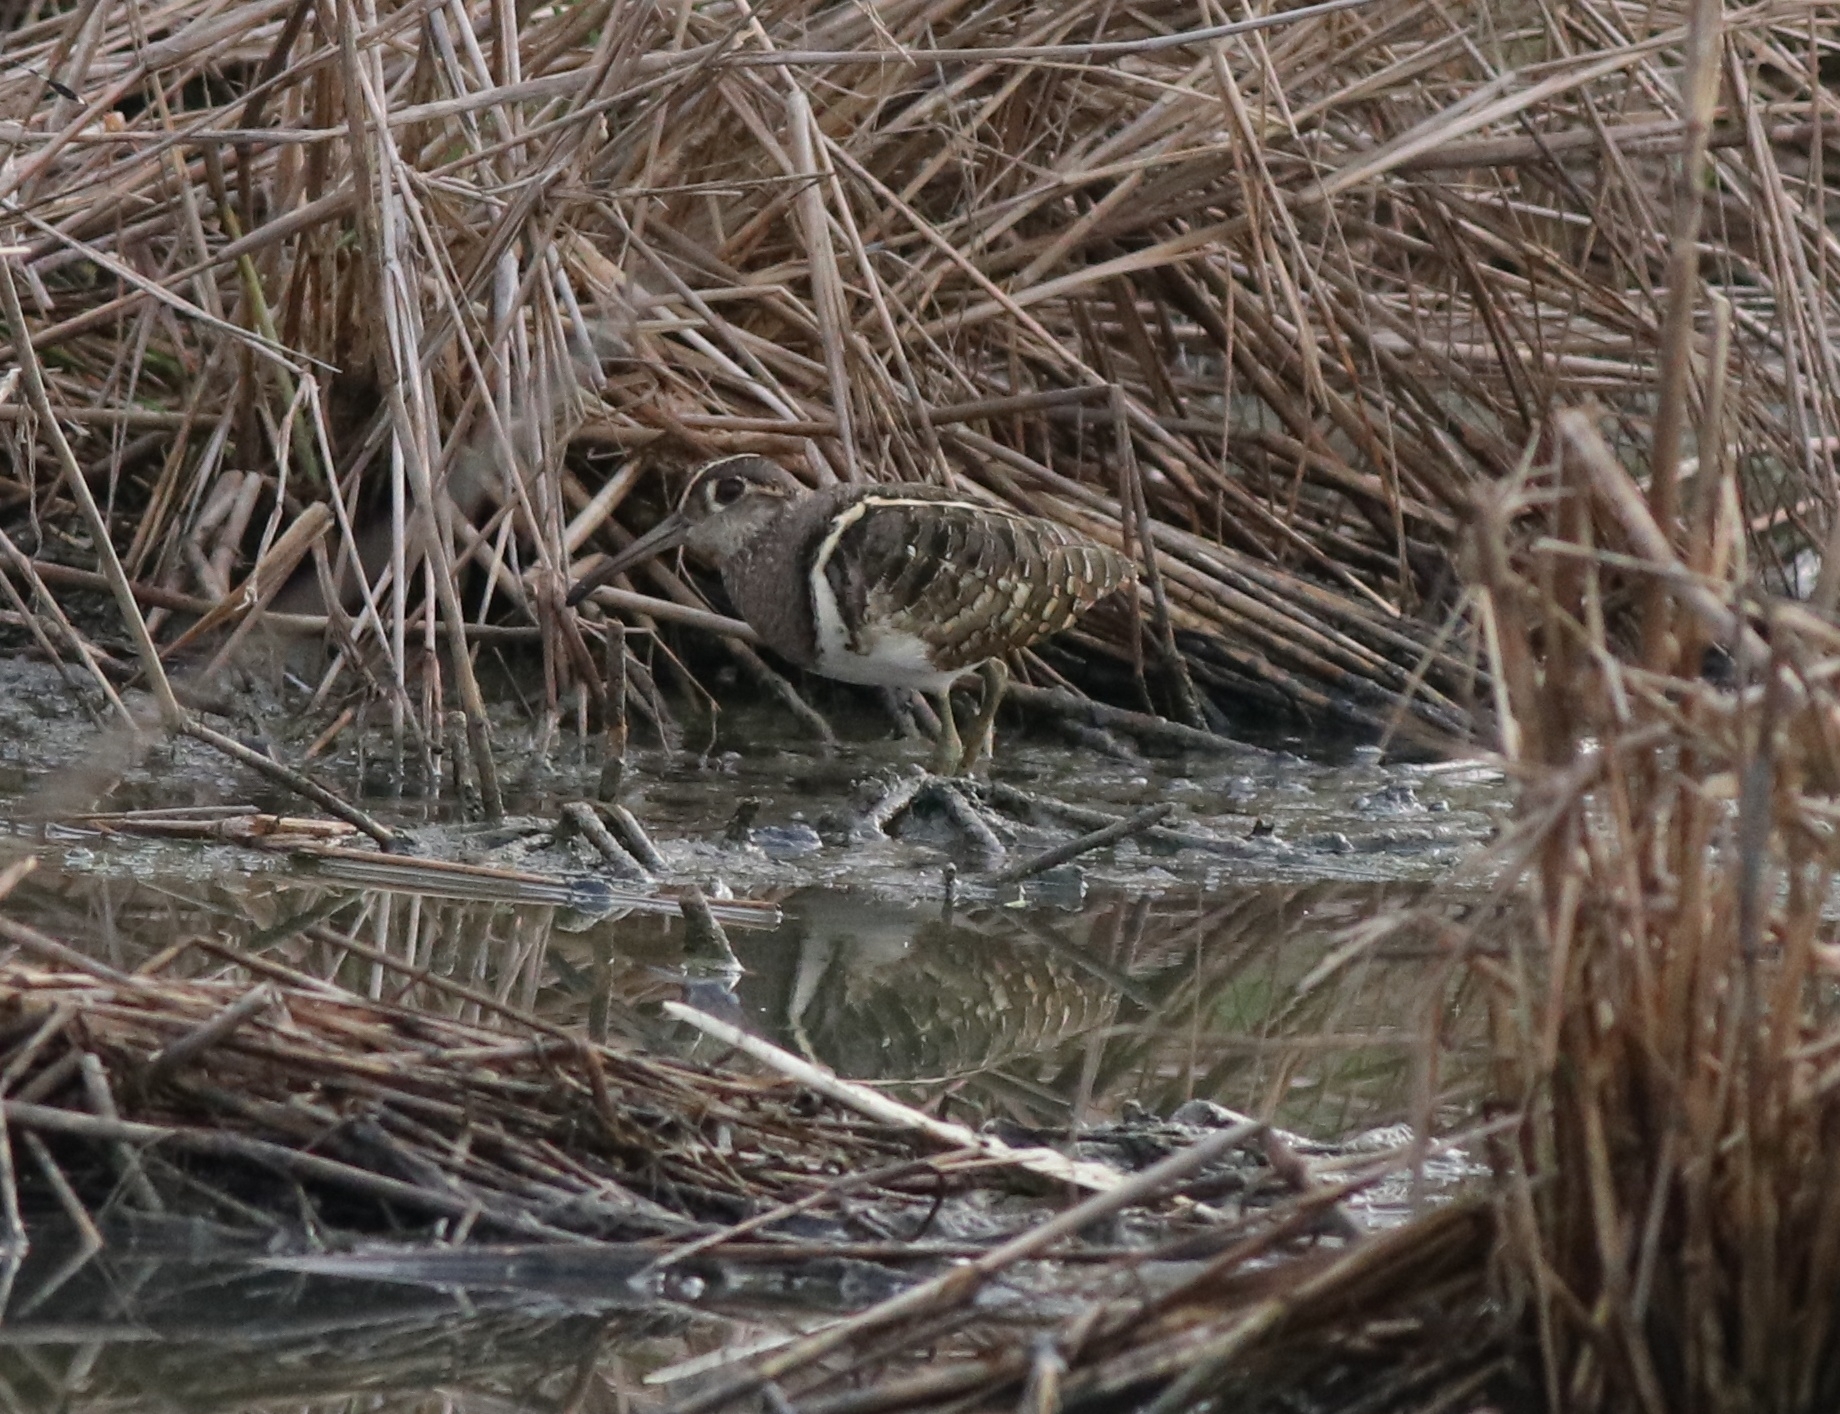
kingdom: Animalia
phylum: Chordata
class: Aves
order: Charadriiformes
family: Rostratulidae
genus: Rostratula
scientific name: Rostratula benghalensis
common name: Greater painted-snipe
